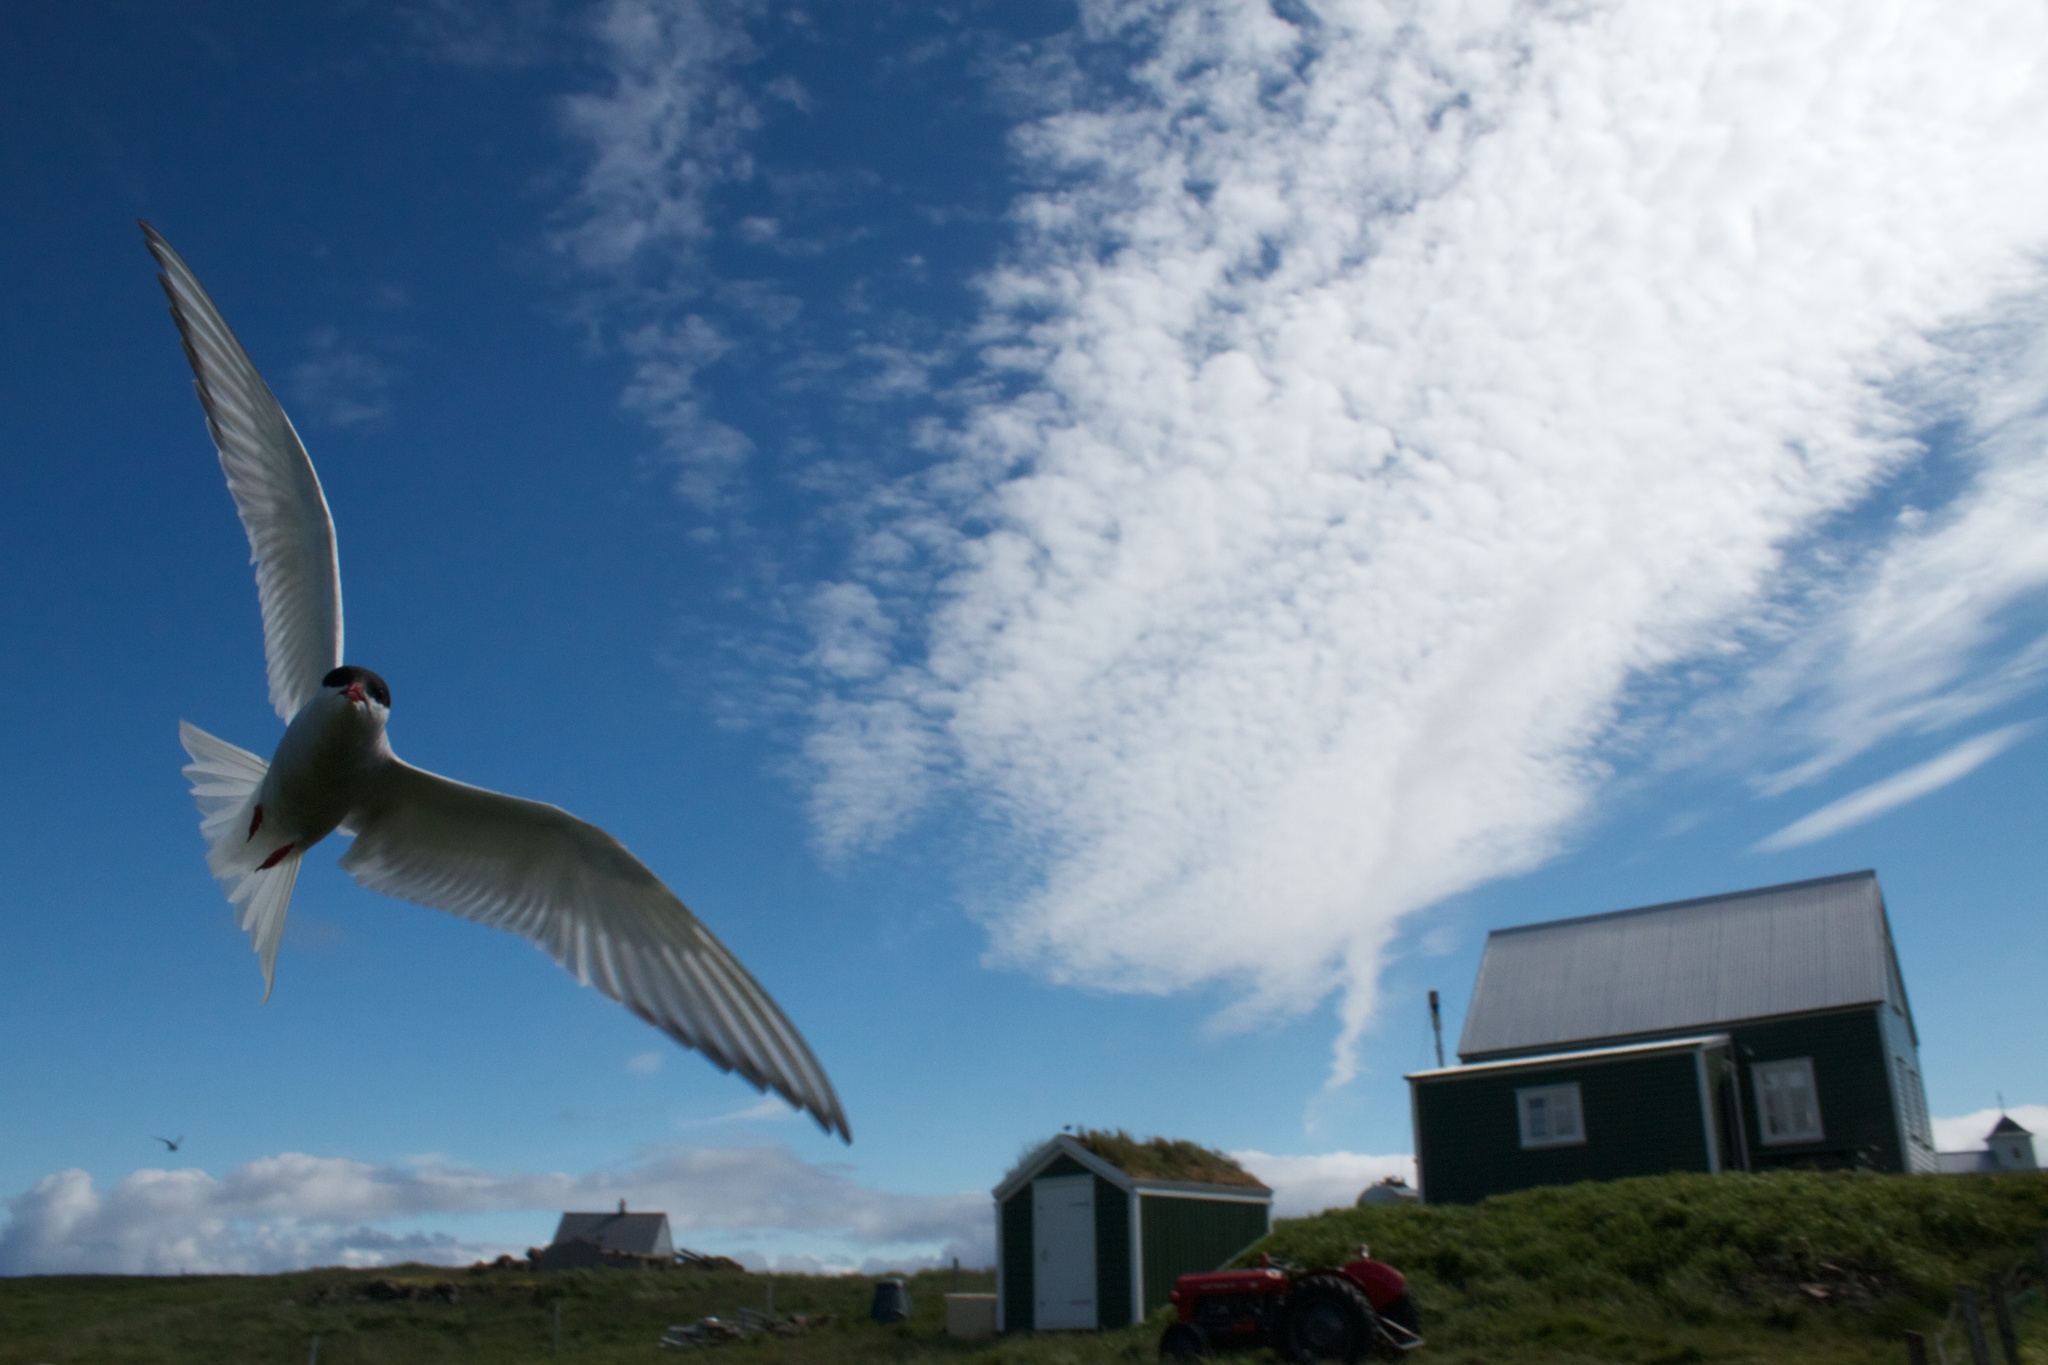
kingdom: Animalia
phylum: Chordata
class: Aves
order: Charadriiformes
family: Laridae
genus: Sterna
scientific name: Sterna paradisaea
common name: Arctic tern
